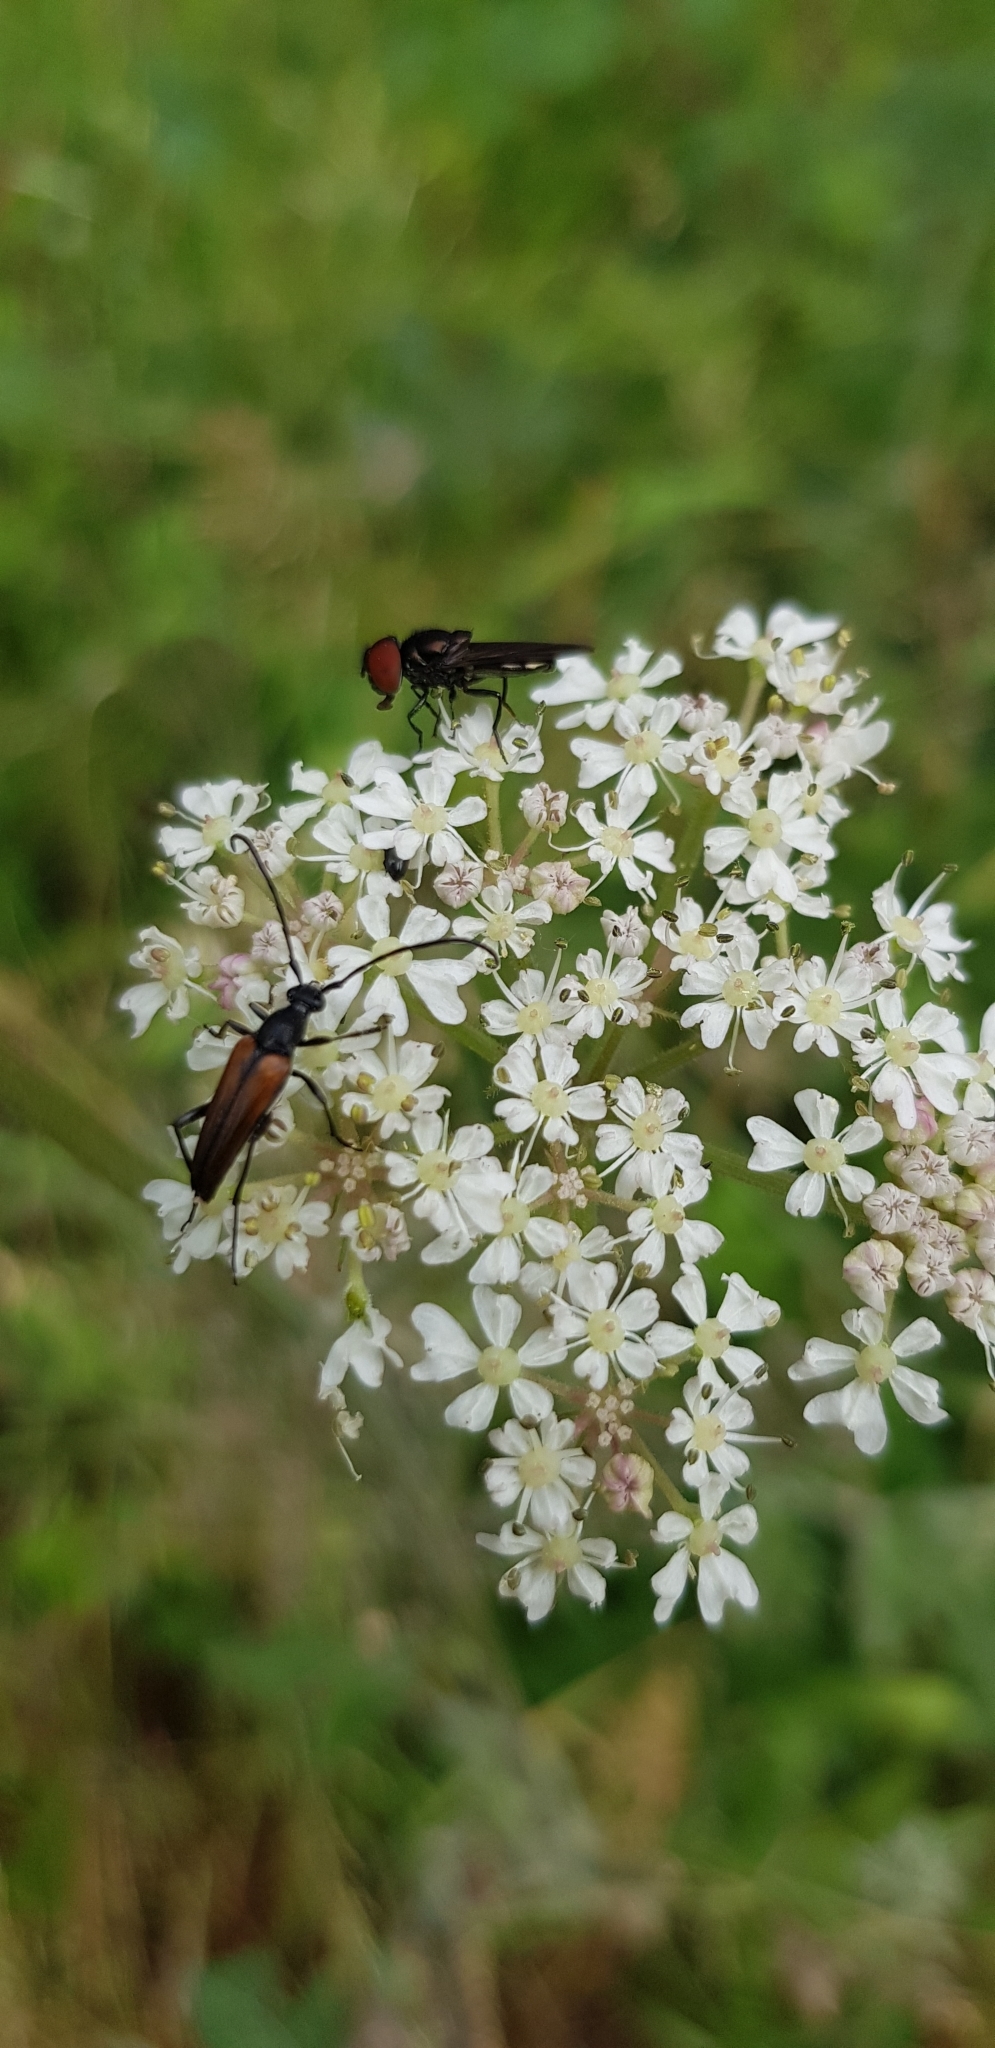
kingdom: Animalia
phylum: Arthropoda
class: Insecta
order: Coleoptera
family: Cerambycidae
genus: Stenurella
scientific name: Stenurella melanura
